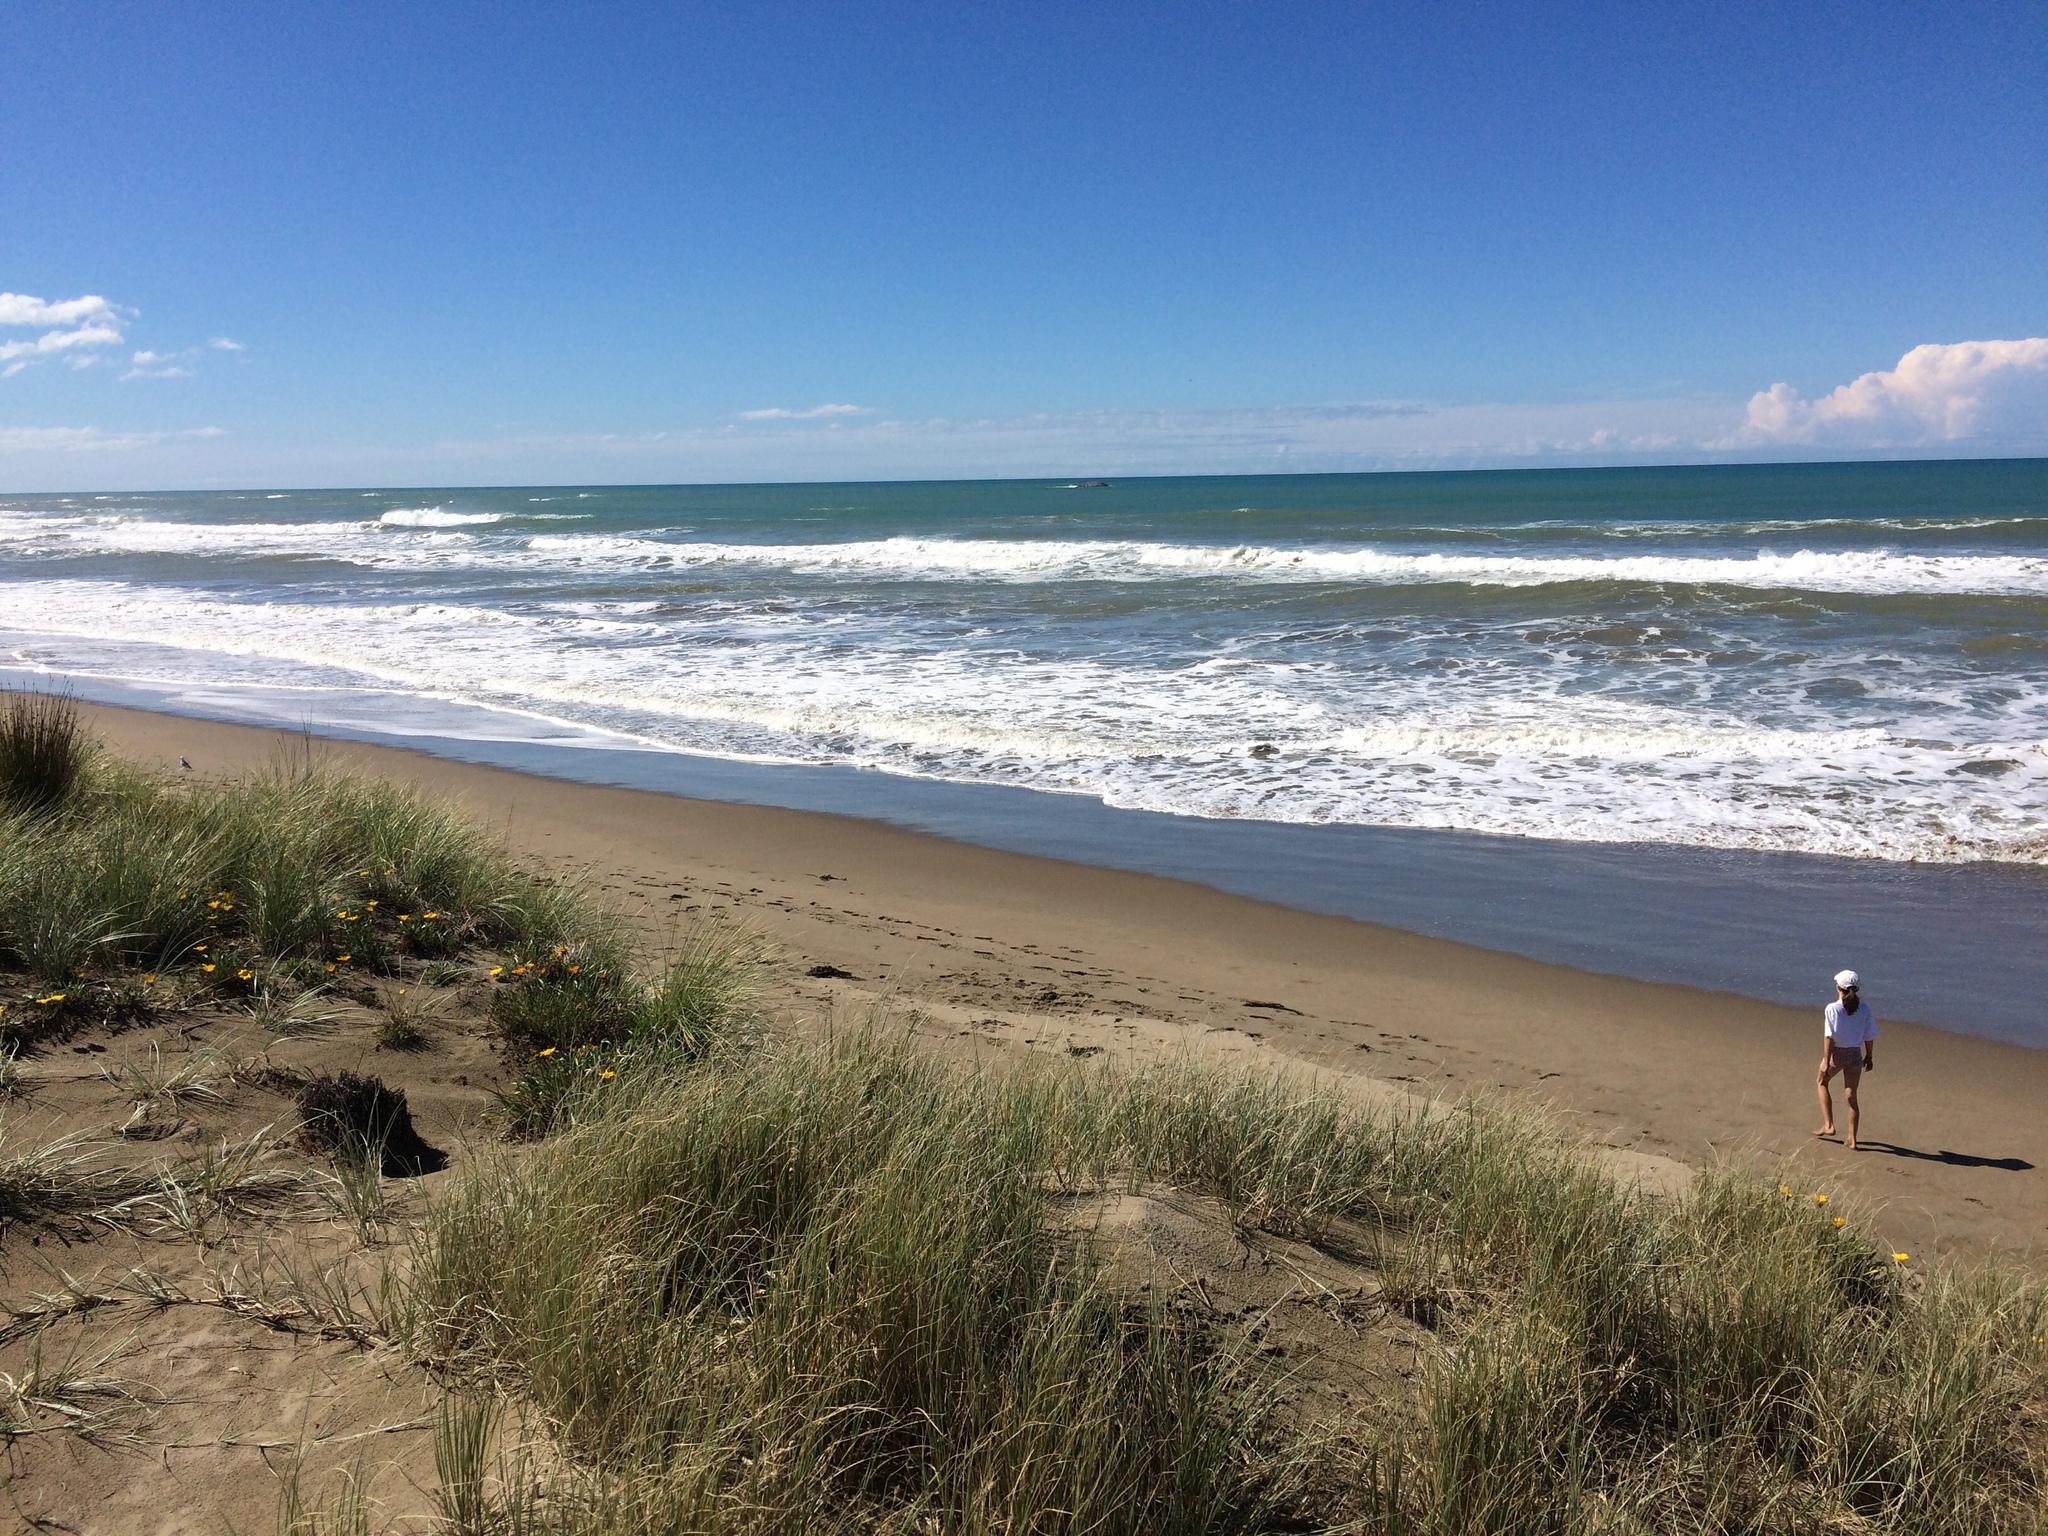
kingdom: Plantae
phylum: Tracheophyta
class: Liliopsida
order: Poales
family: Poaceae
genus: Spinifex
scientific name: Spinifex sericeus
